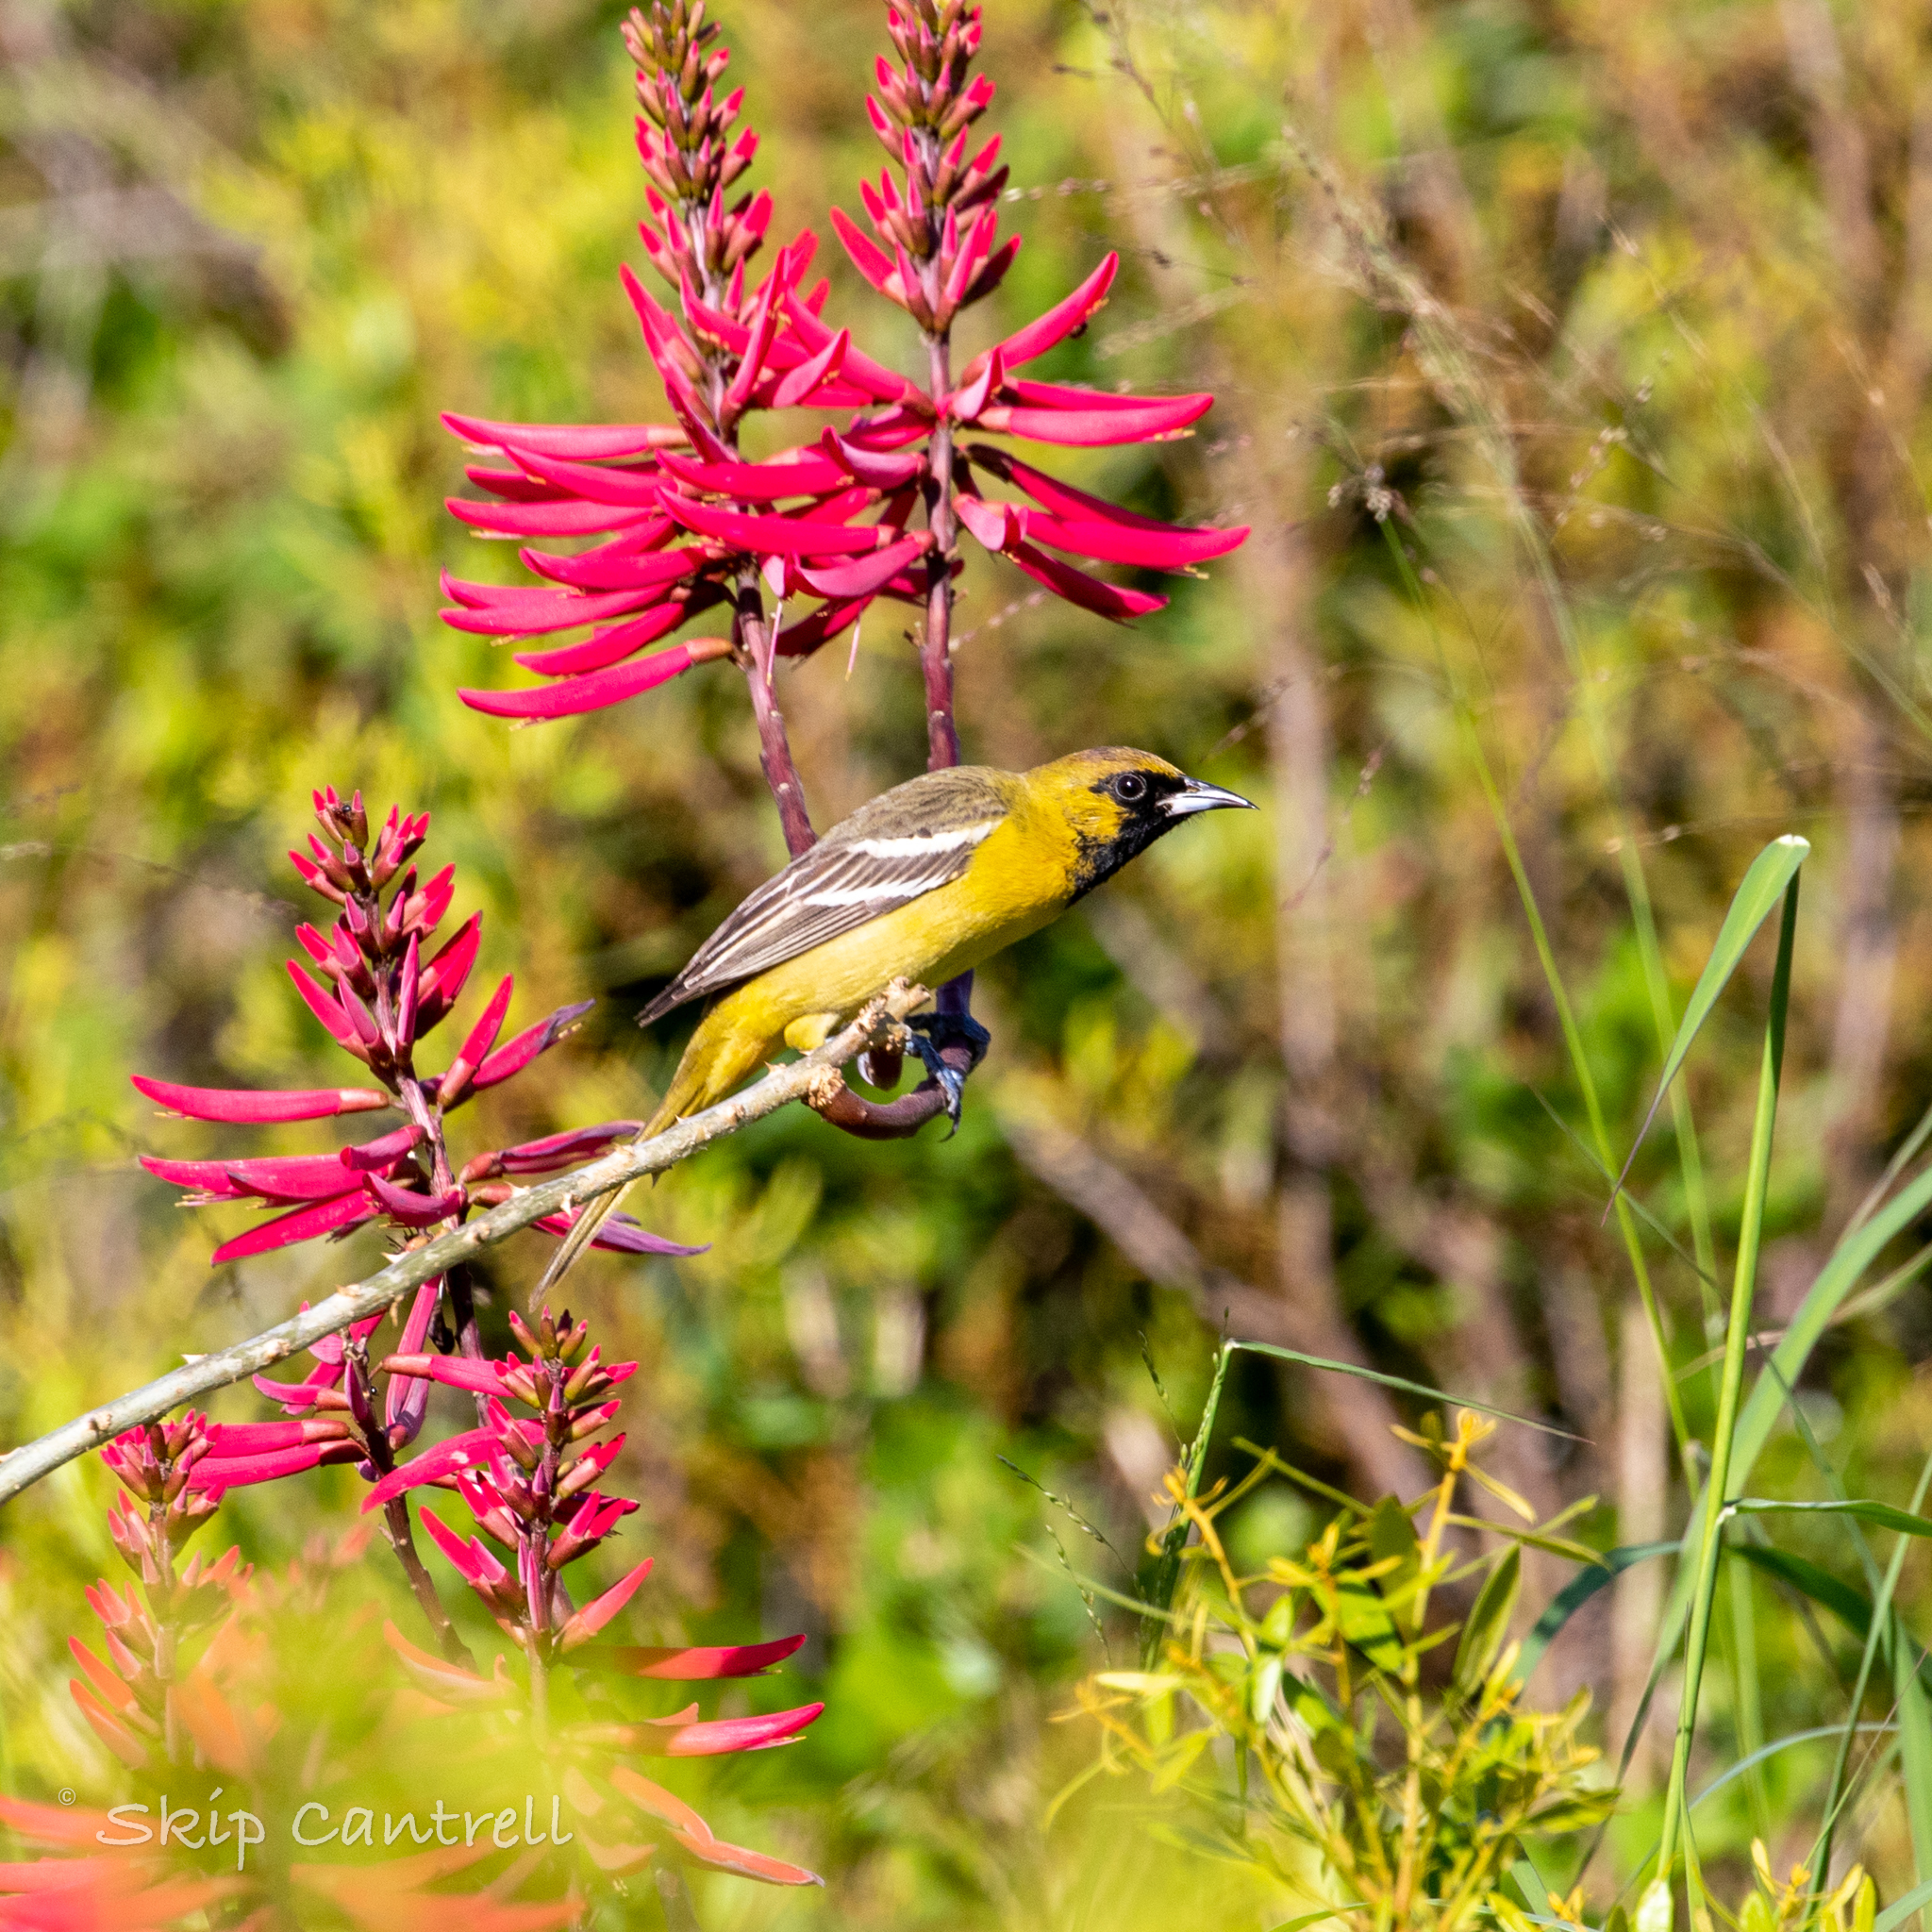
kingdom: Animalia
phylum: Chordata
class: Aves
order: Passeriformes
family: Icteridae
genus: Icterus
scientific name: Icterus spurius
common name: Orchard oriole
